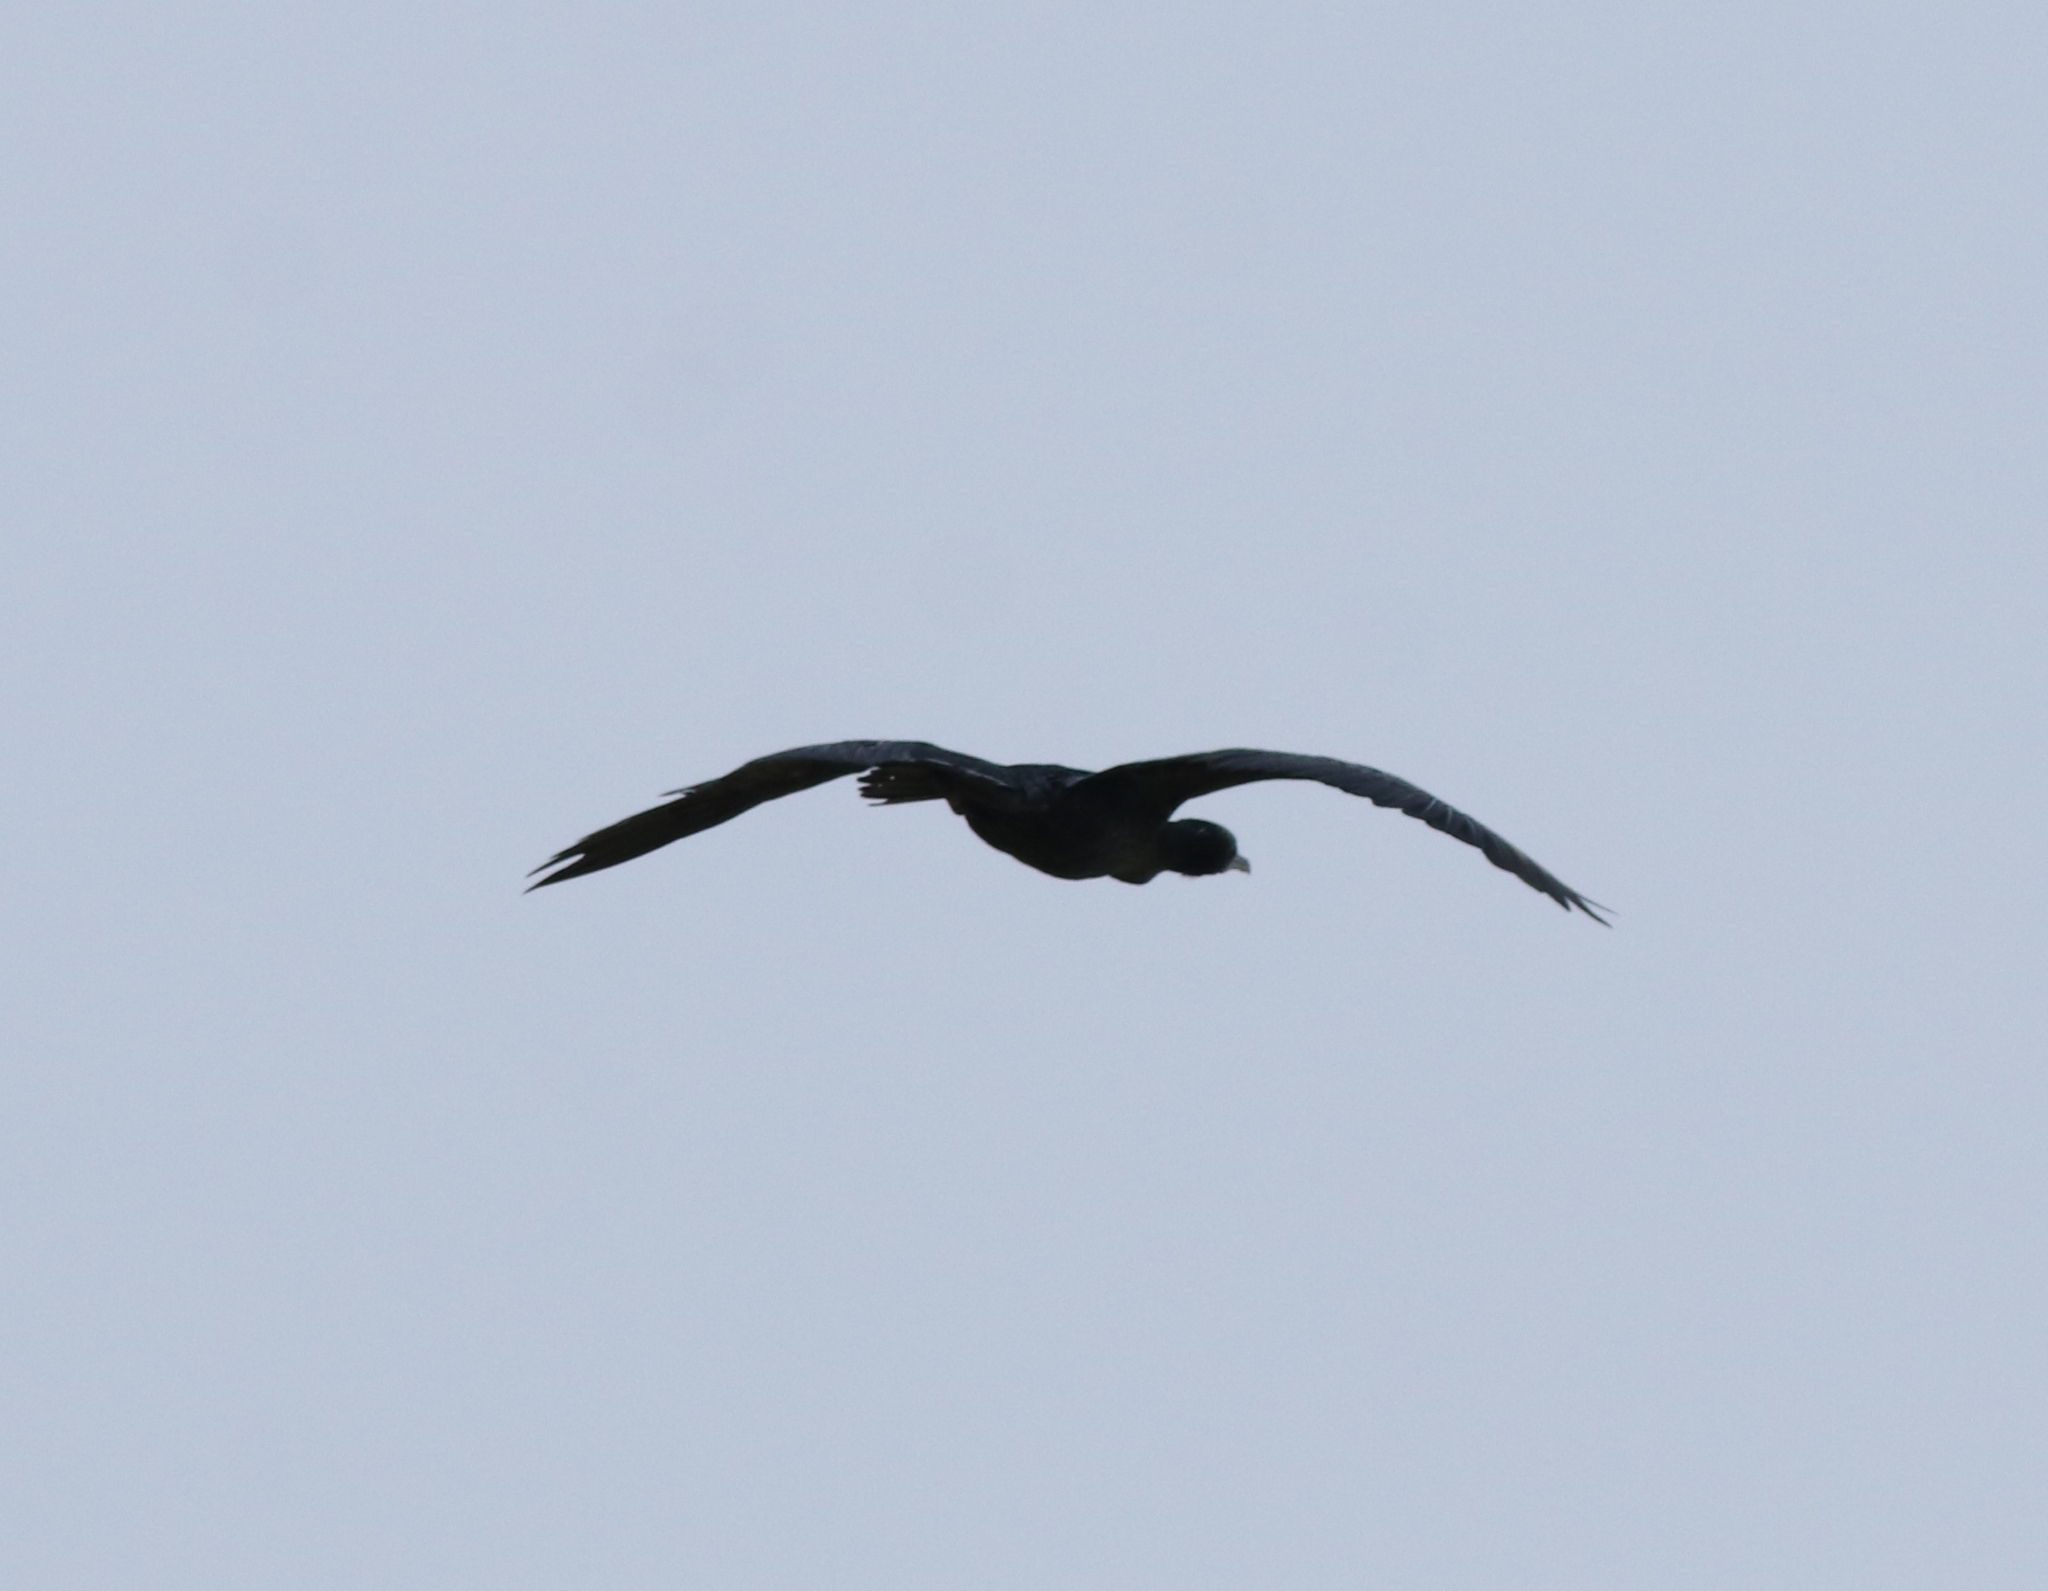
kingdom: Animalia
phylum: Chordata
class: Aves
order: Suliformes
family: Phalacrocoracidae
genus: Microcarbo
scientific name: Microcarbo niger
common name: Little cormorant
